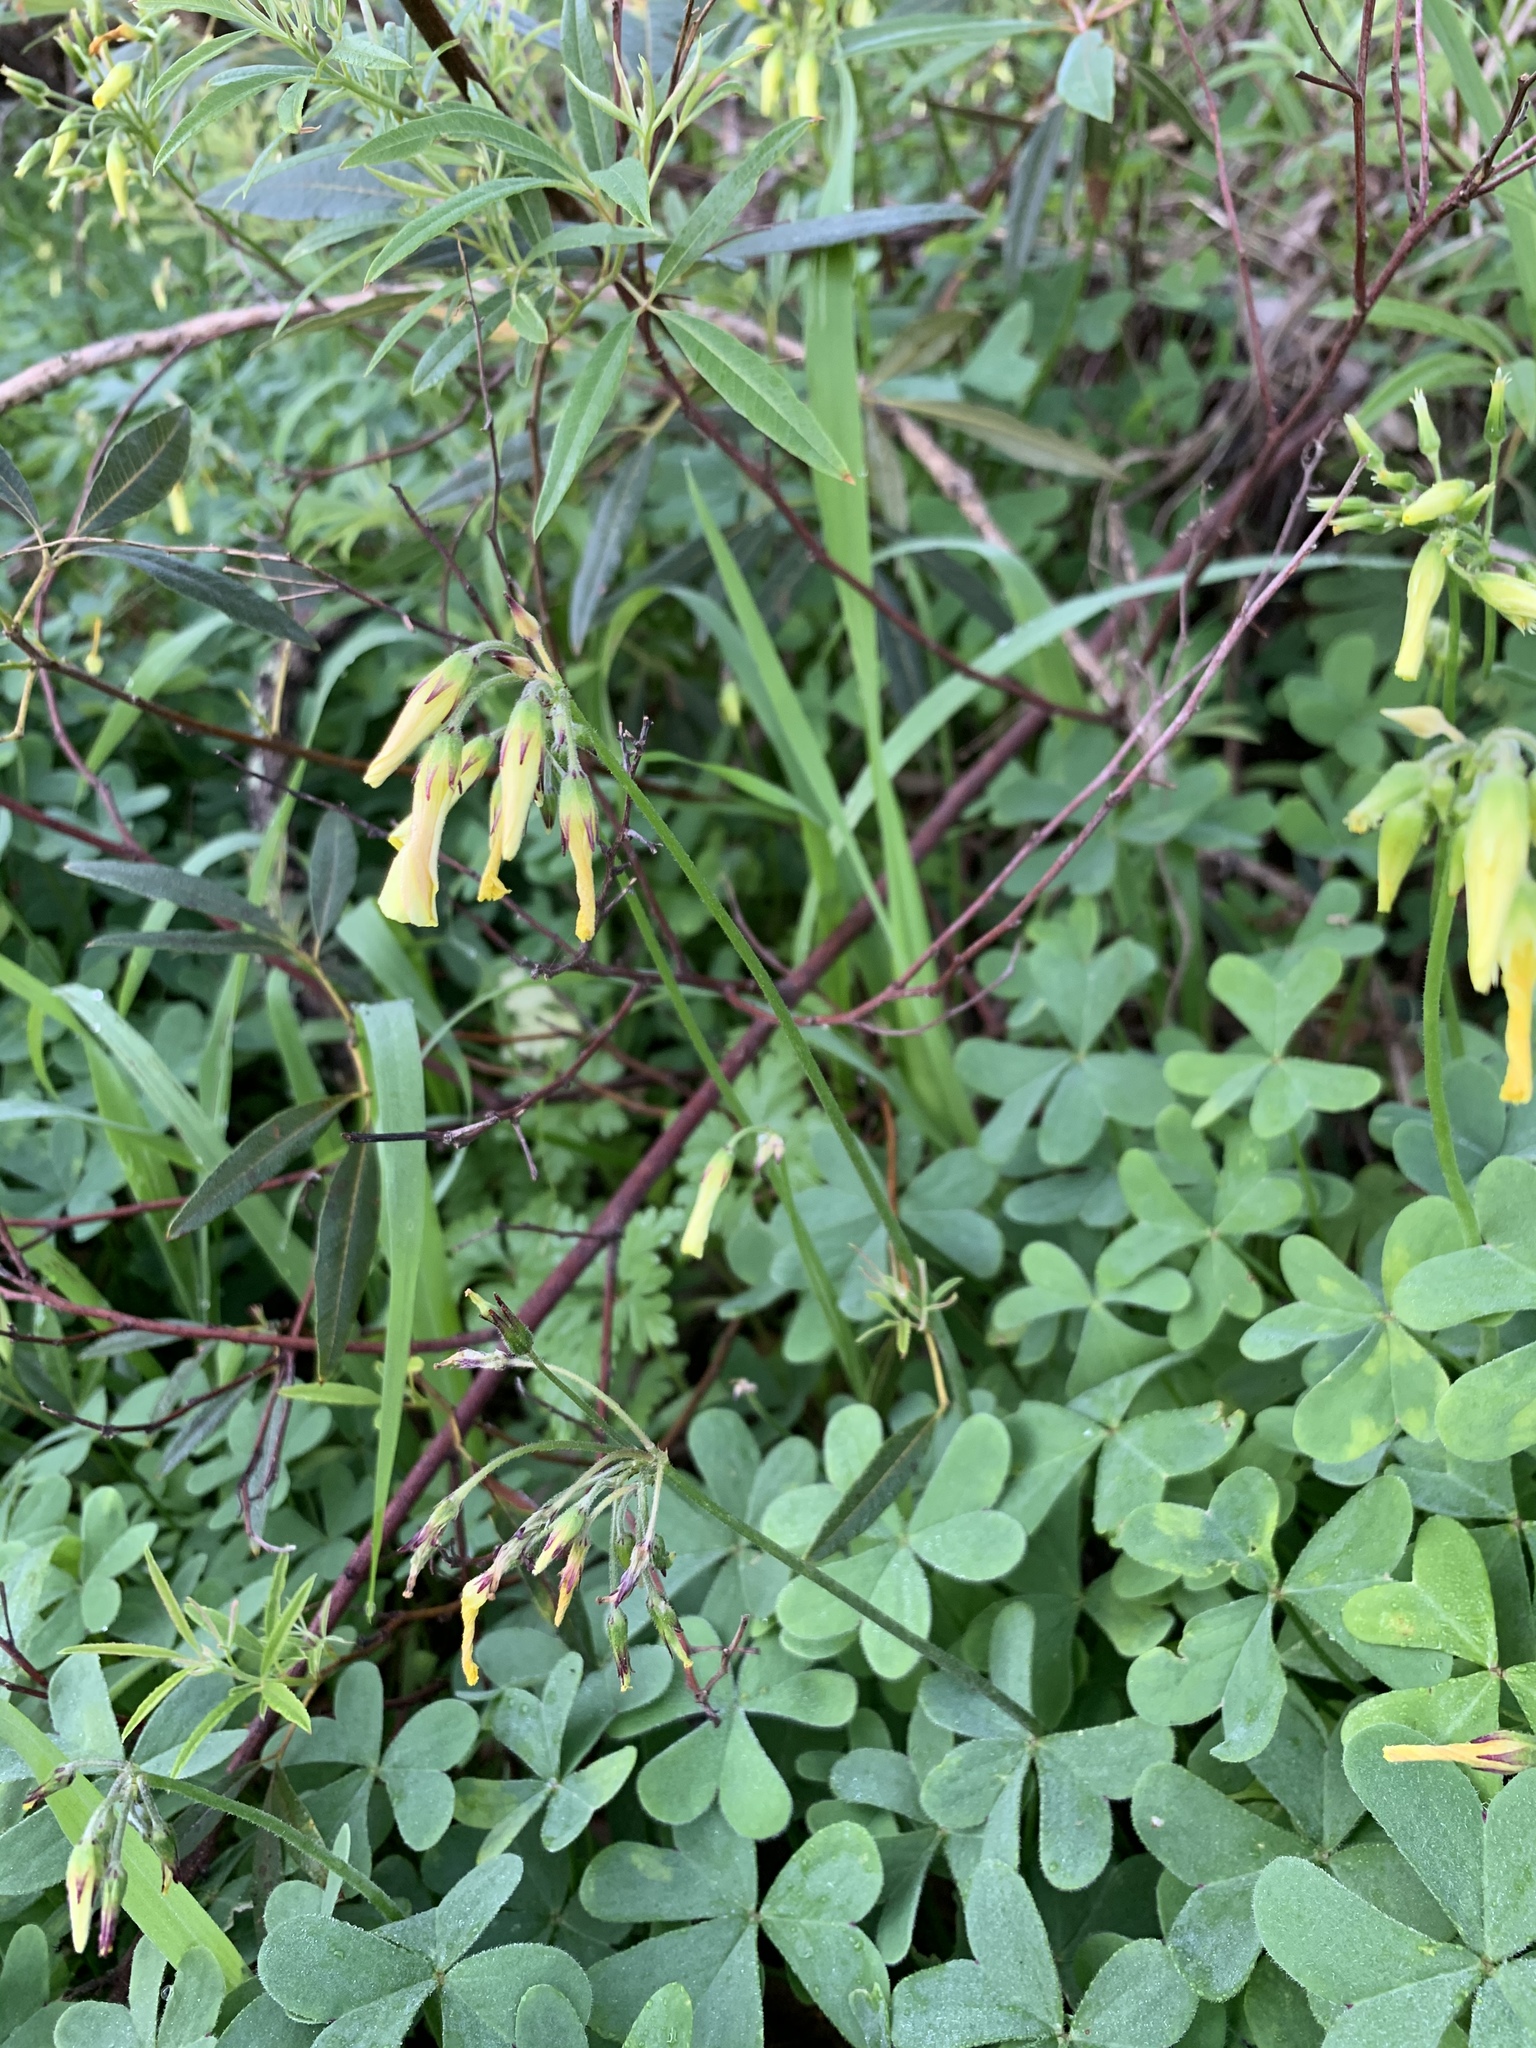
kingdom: Plantae
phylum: Tracheophyta
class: Magnoliopsida
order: Oxalidales
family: Oxalidaceae
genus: Oxalis
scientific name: Oxalis pes-caprae
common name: Bermuda-buttercup
